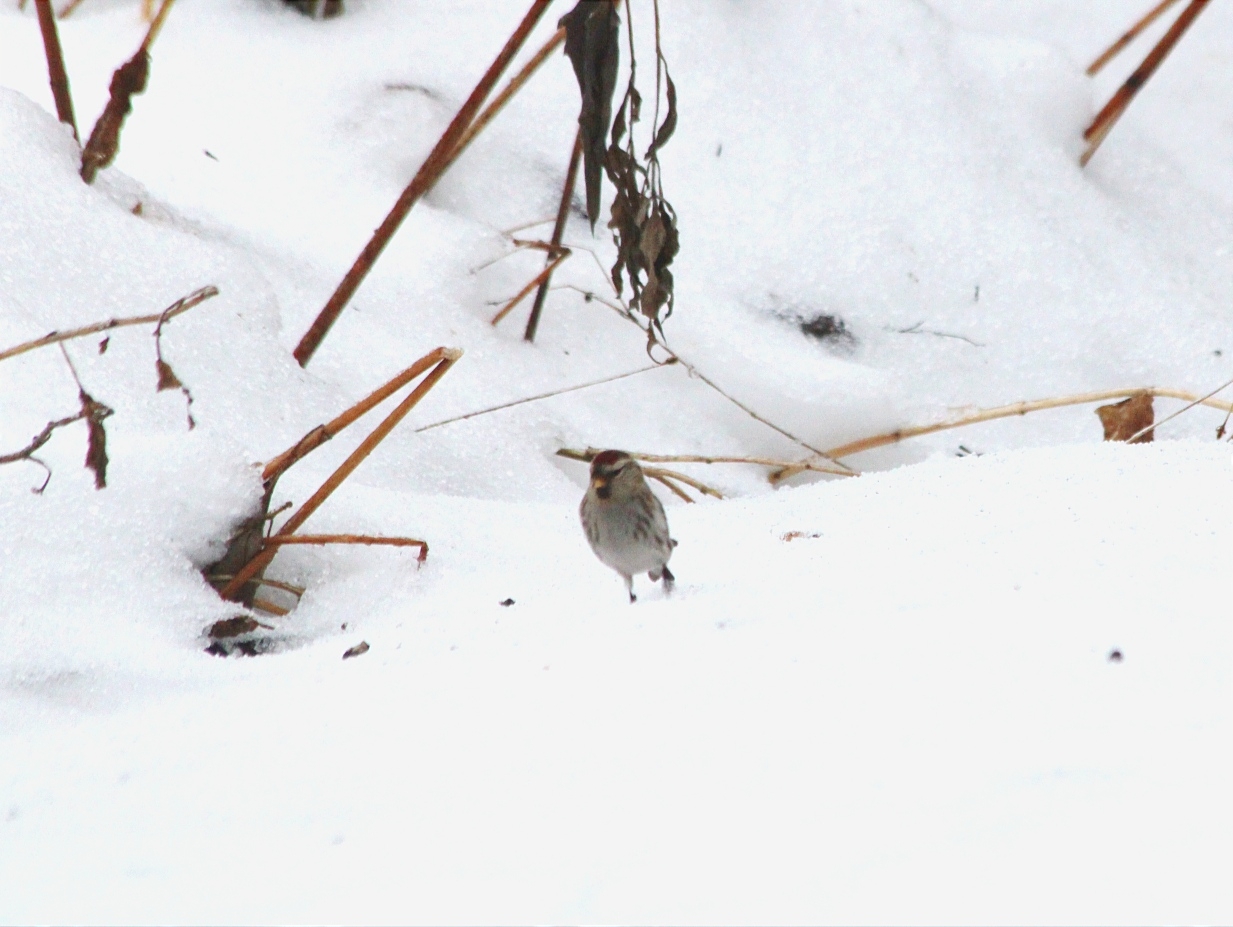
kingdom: Animalia
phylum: Chordata
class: Aves
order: Passeriformes
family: Fringillidae
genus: Acanthis
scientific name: Acanthis flammea
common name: Common redpoll
